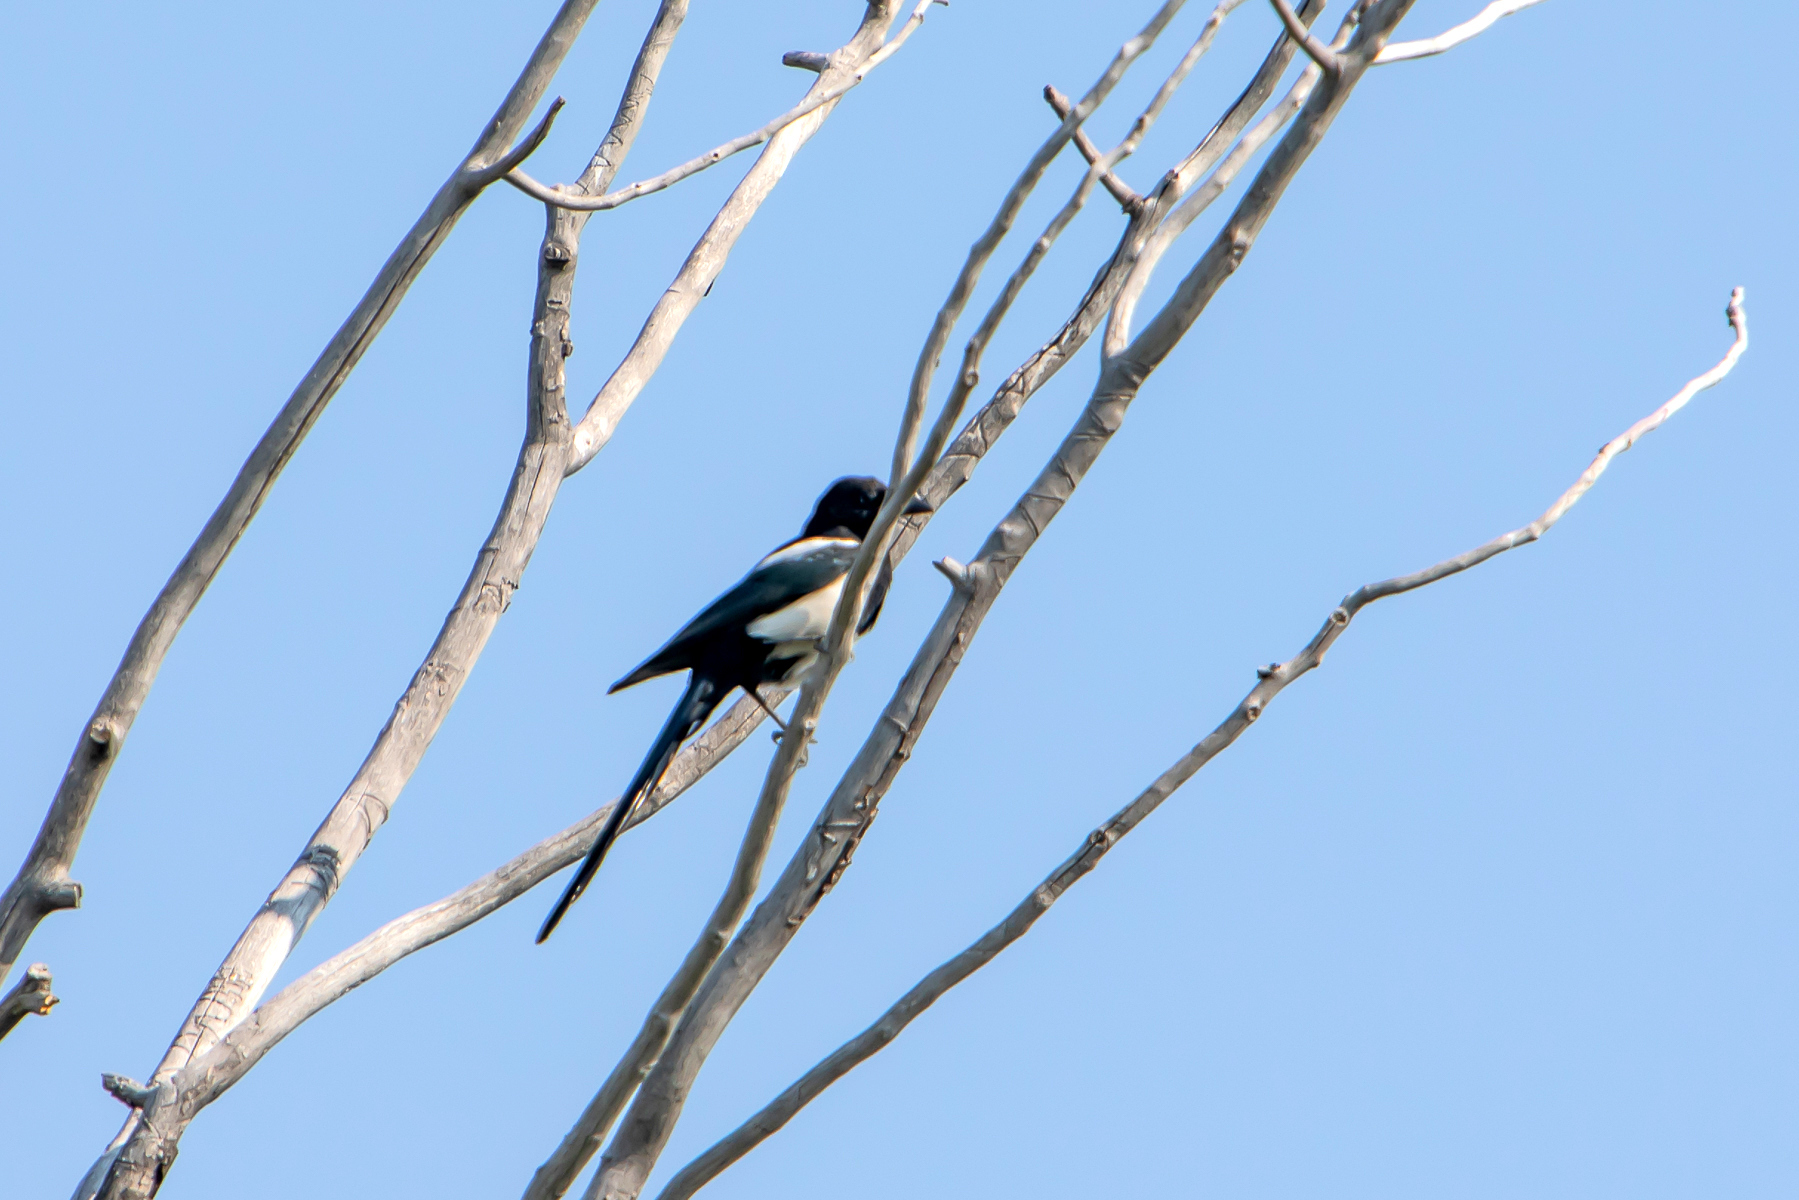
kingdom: Animalia
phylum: Chordata
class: Aves
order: Passeriformes
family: Corvidae
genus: Pica
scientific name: Pica hudsonia
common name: Black-billed magpie
